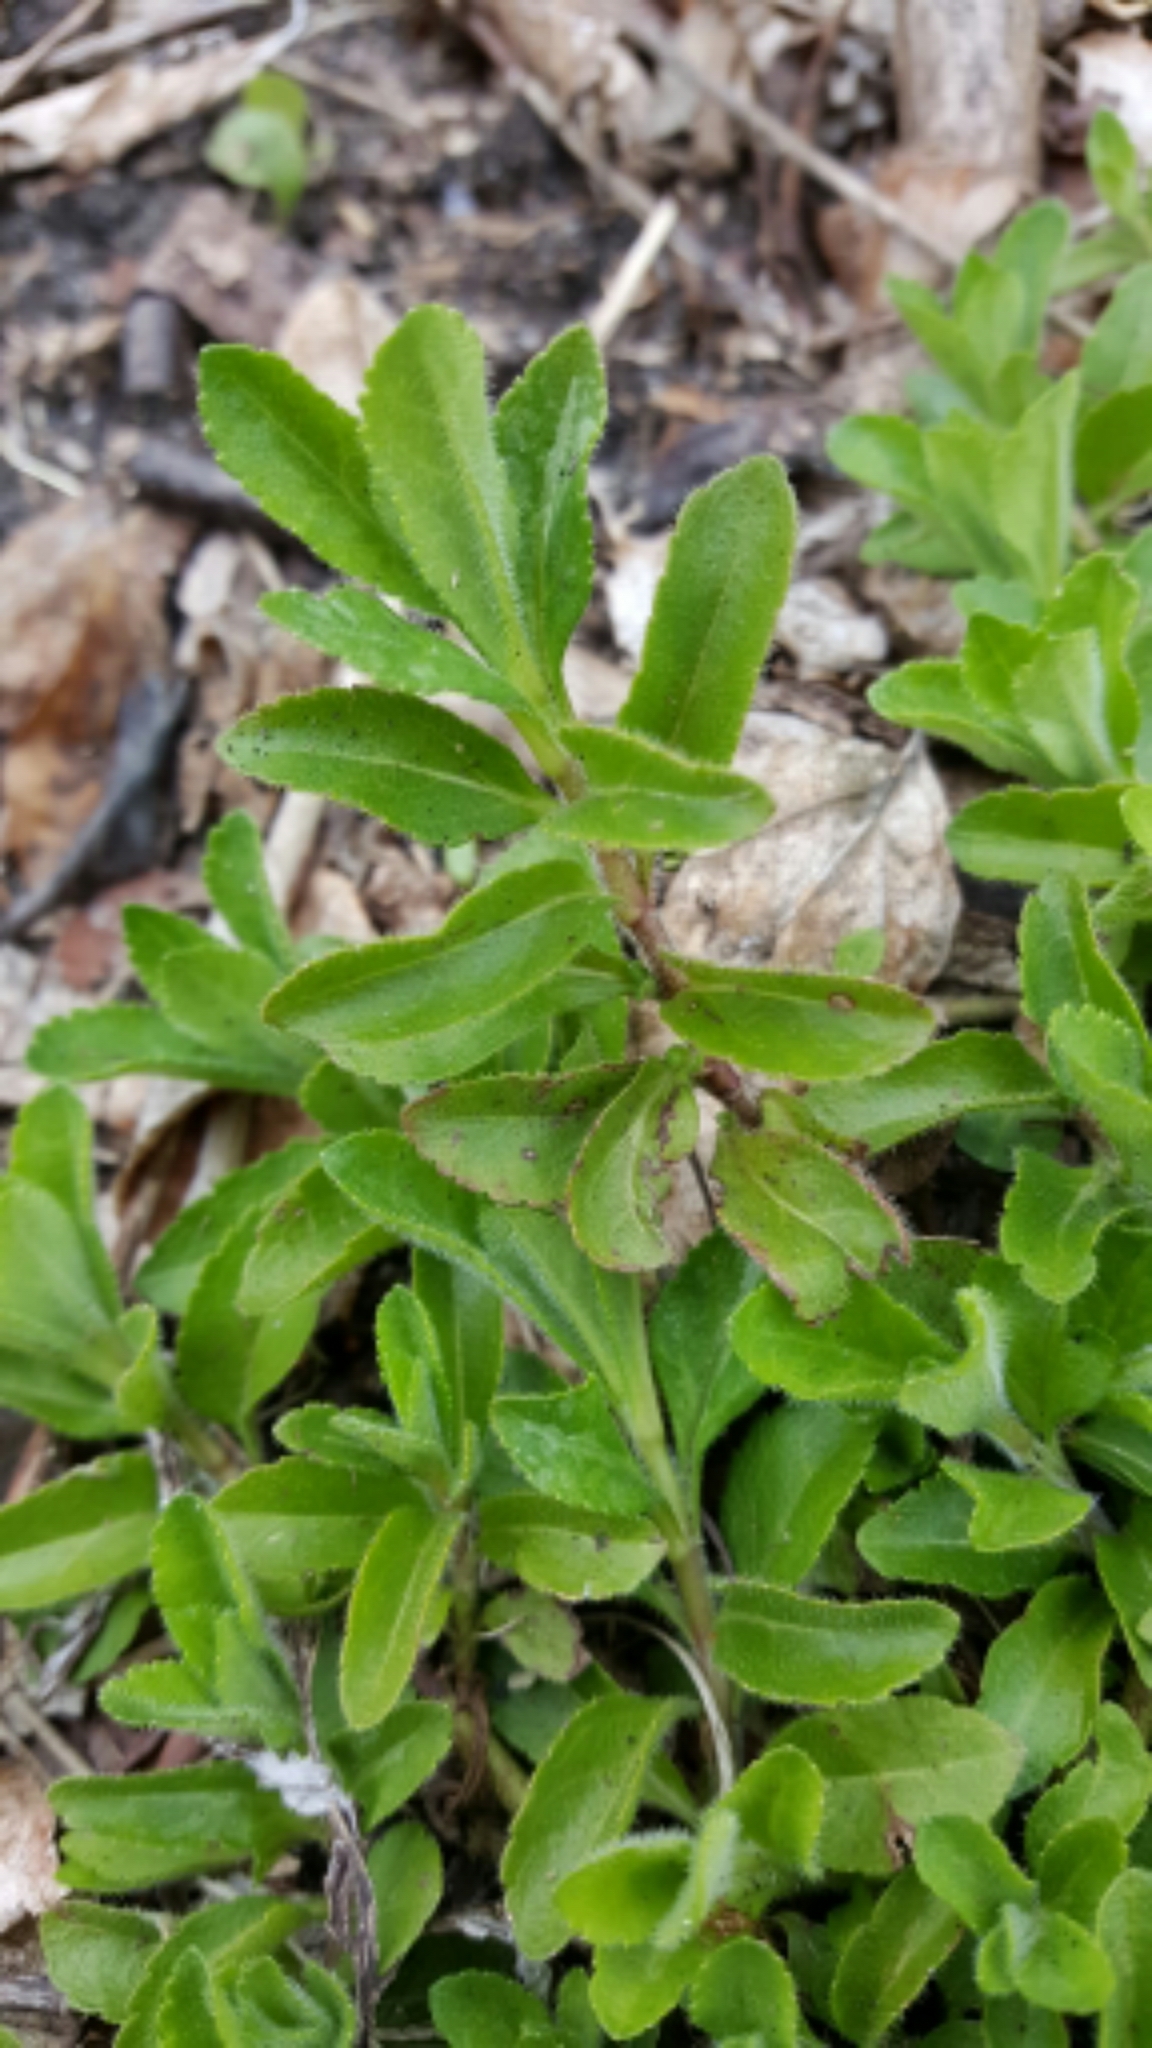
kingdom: Plantae
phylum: Tracheophyta
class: Magnoliopsida
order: Lamiales
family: Plantaginaceae
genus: Veronica
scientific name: Veronica officinalis
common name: Common speedwell
